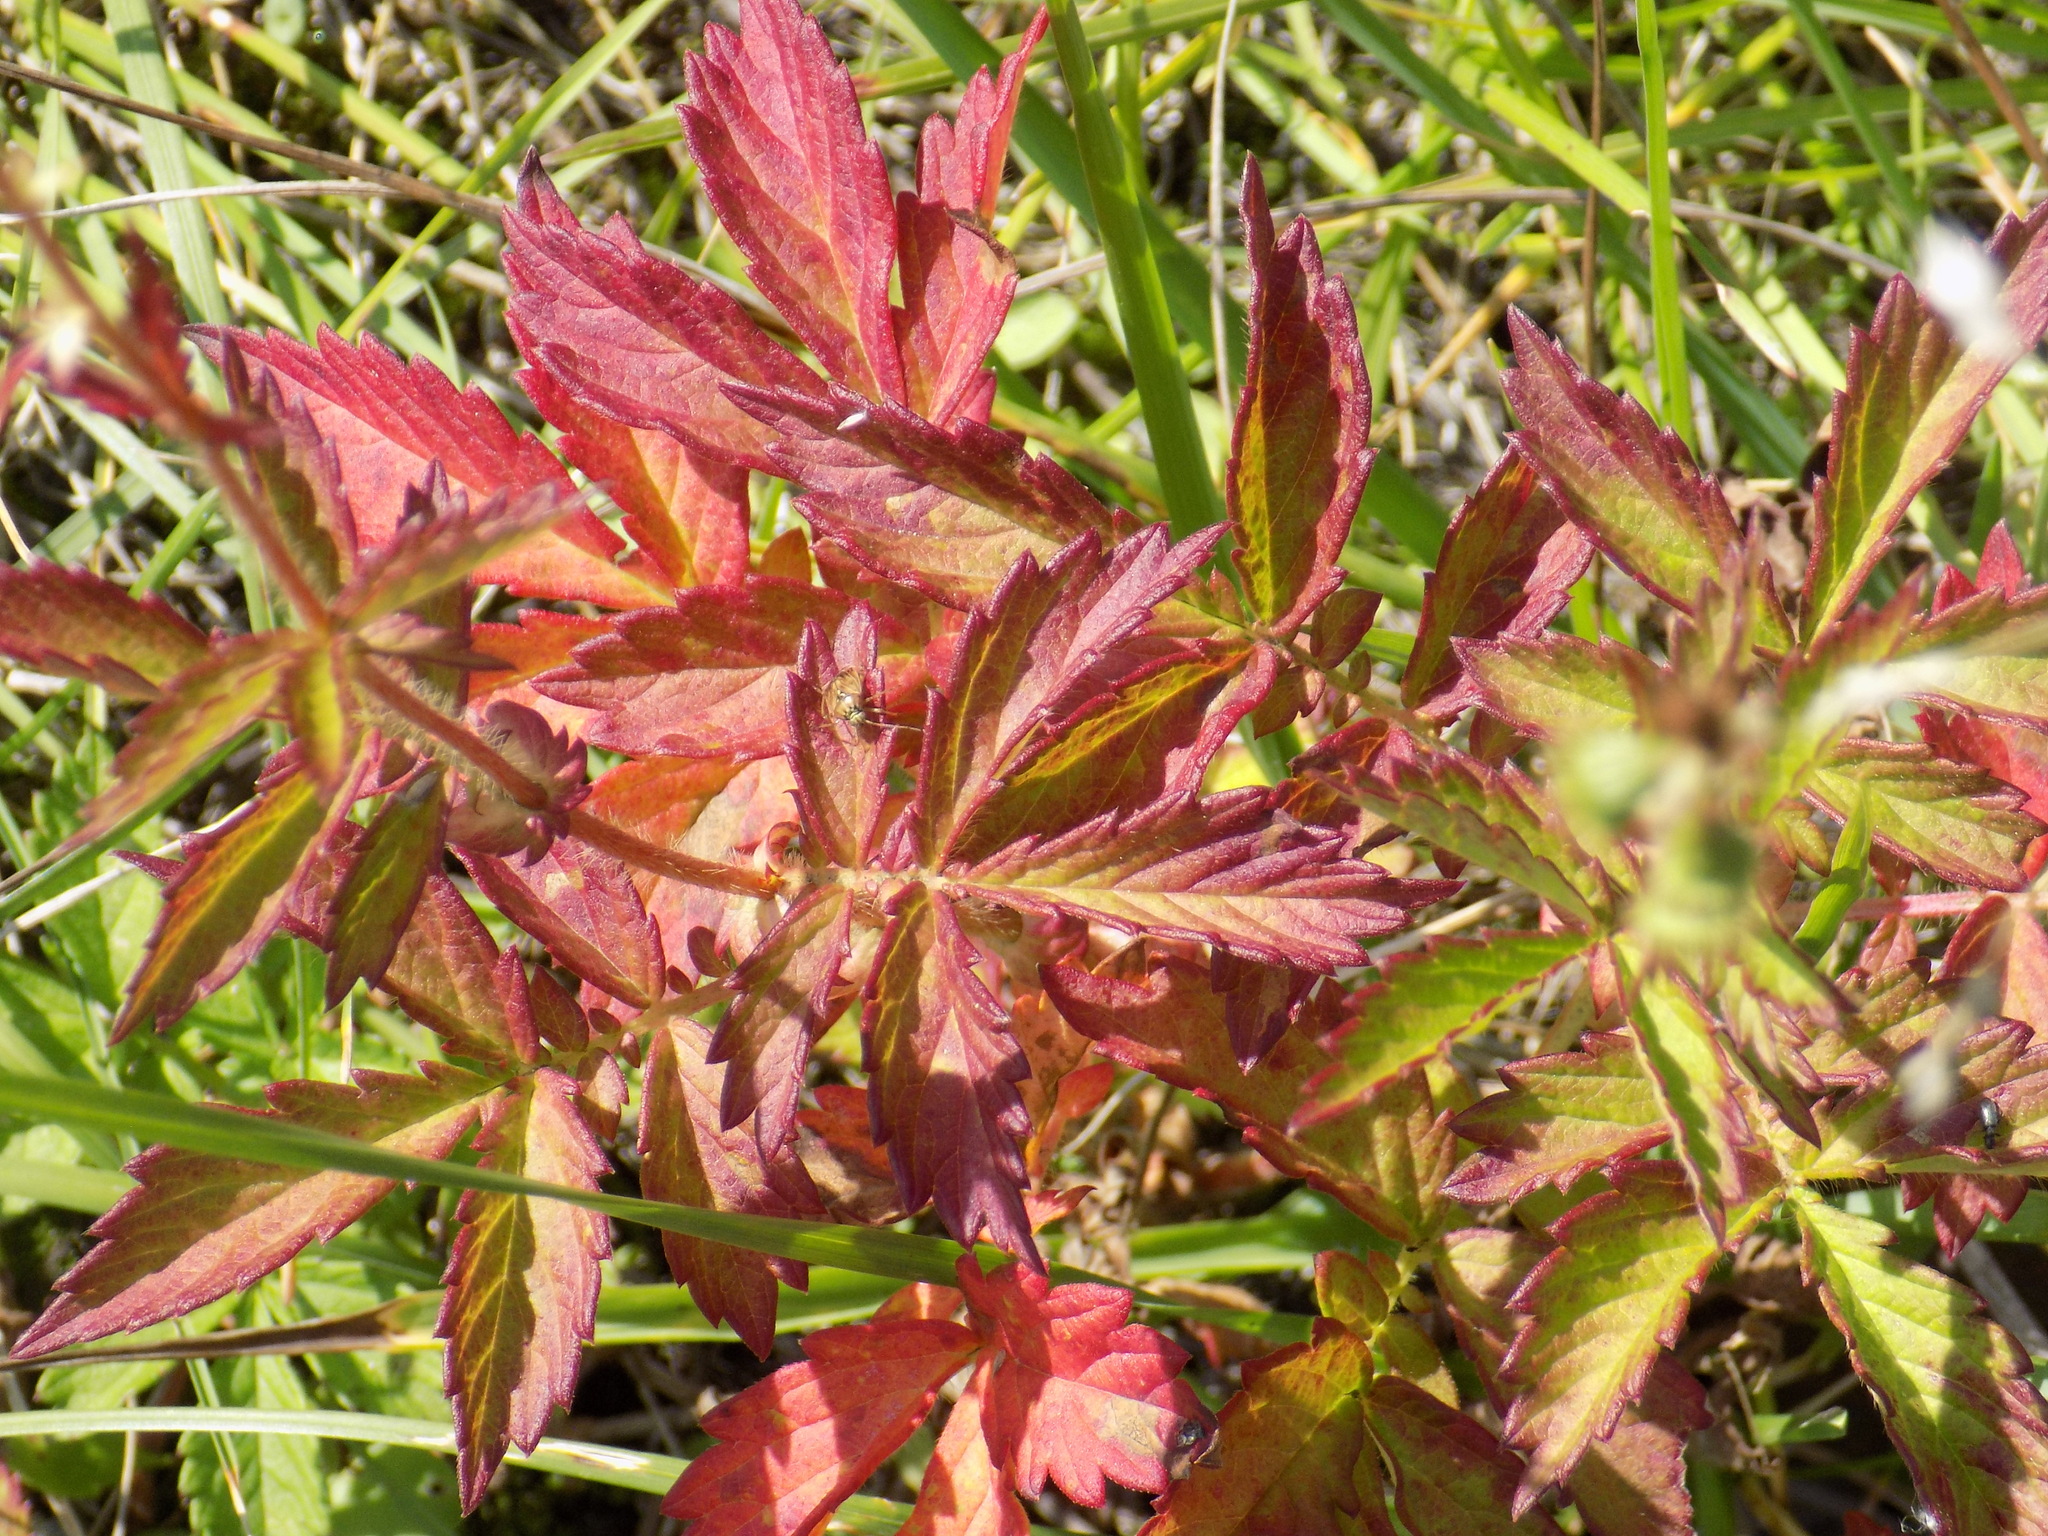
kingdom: Plantae
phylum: Tracheophyta
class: Magnoliopsida
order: Rosales
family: Rosaceae
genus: Agrimonia
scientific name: Agrimonia pilosa
